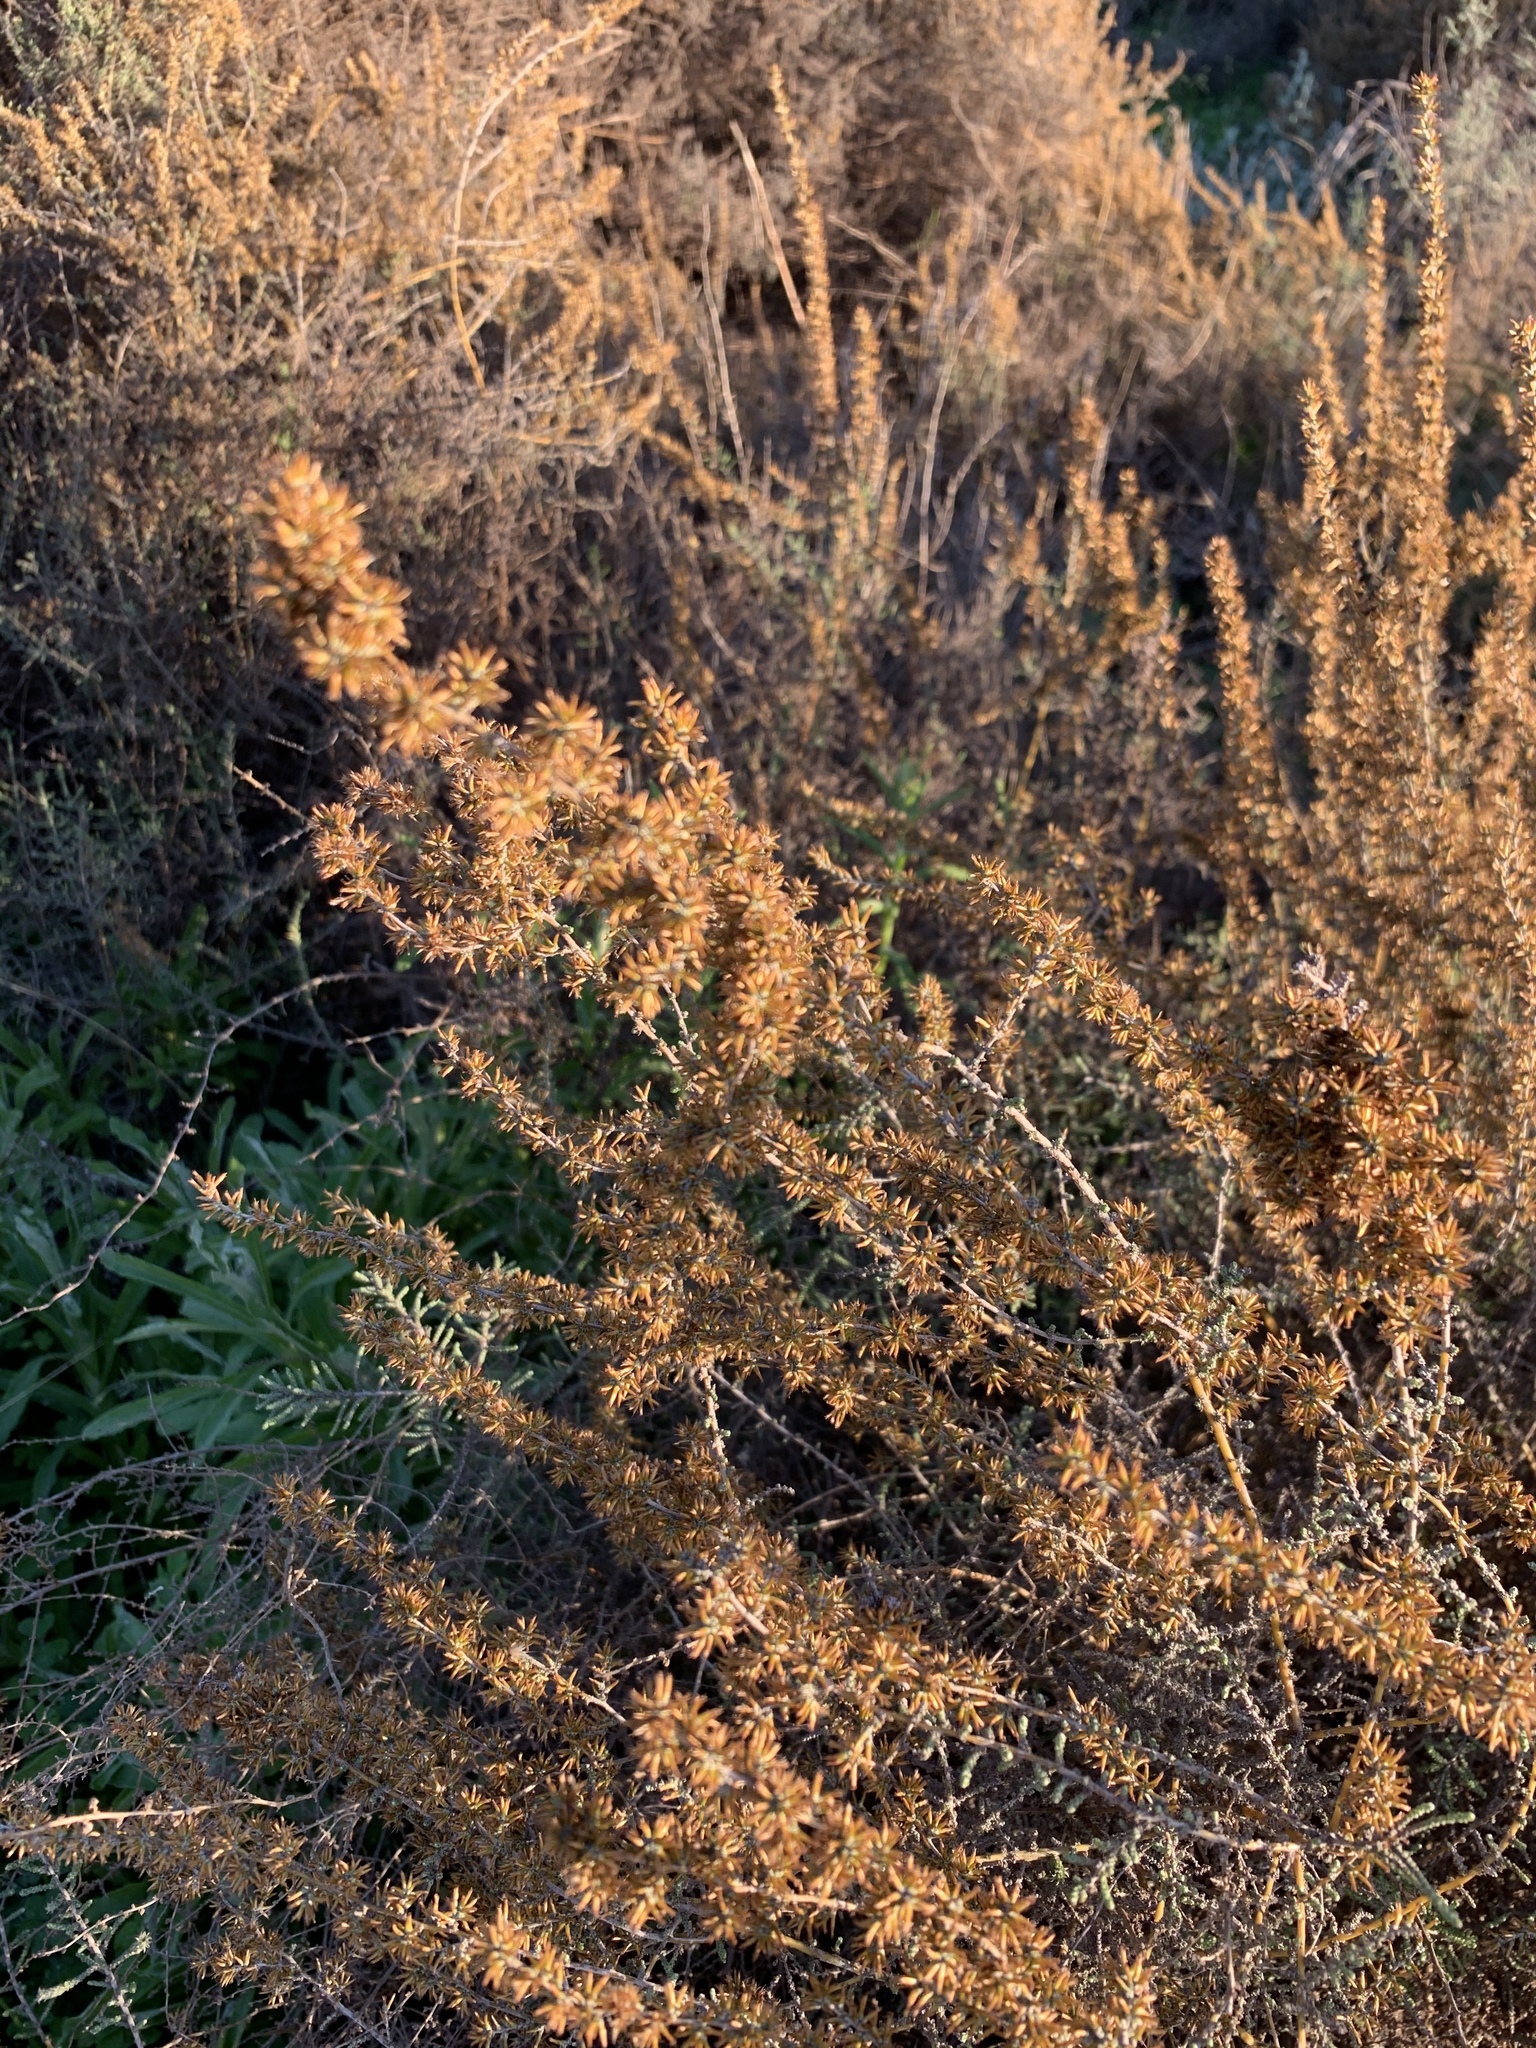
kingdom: Plantae
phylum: Tracheophyta
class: Magnoliopsida
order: Asterales
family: Asteraceae
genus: Seriphium
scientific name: Seriphium plumosum
